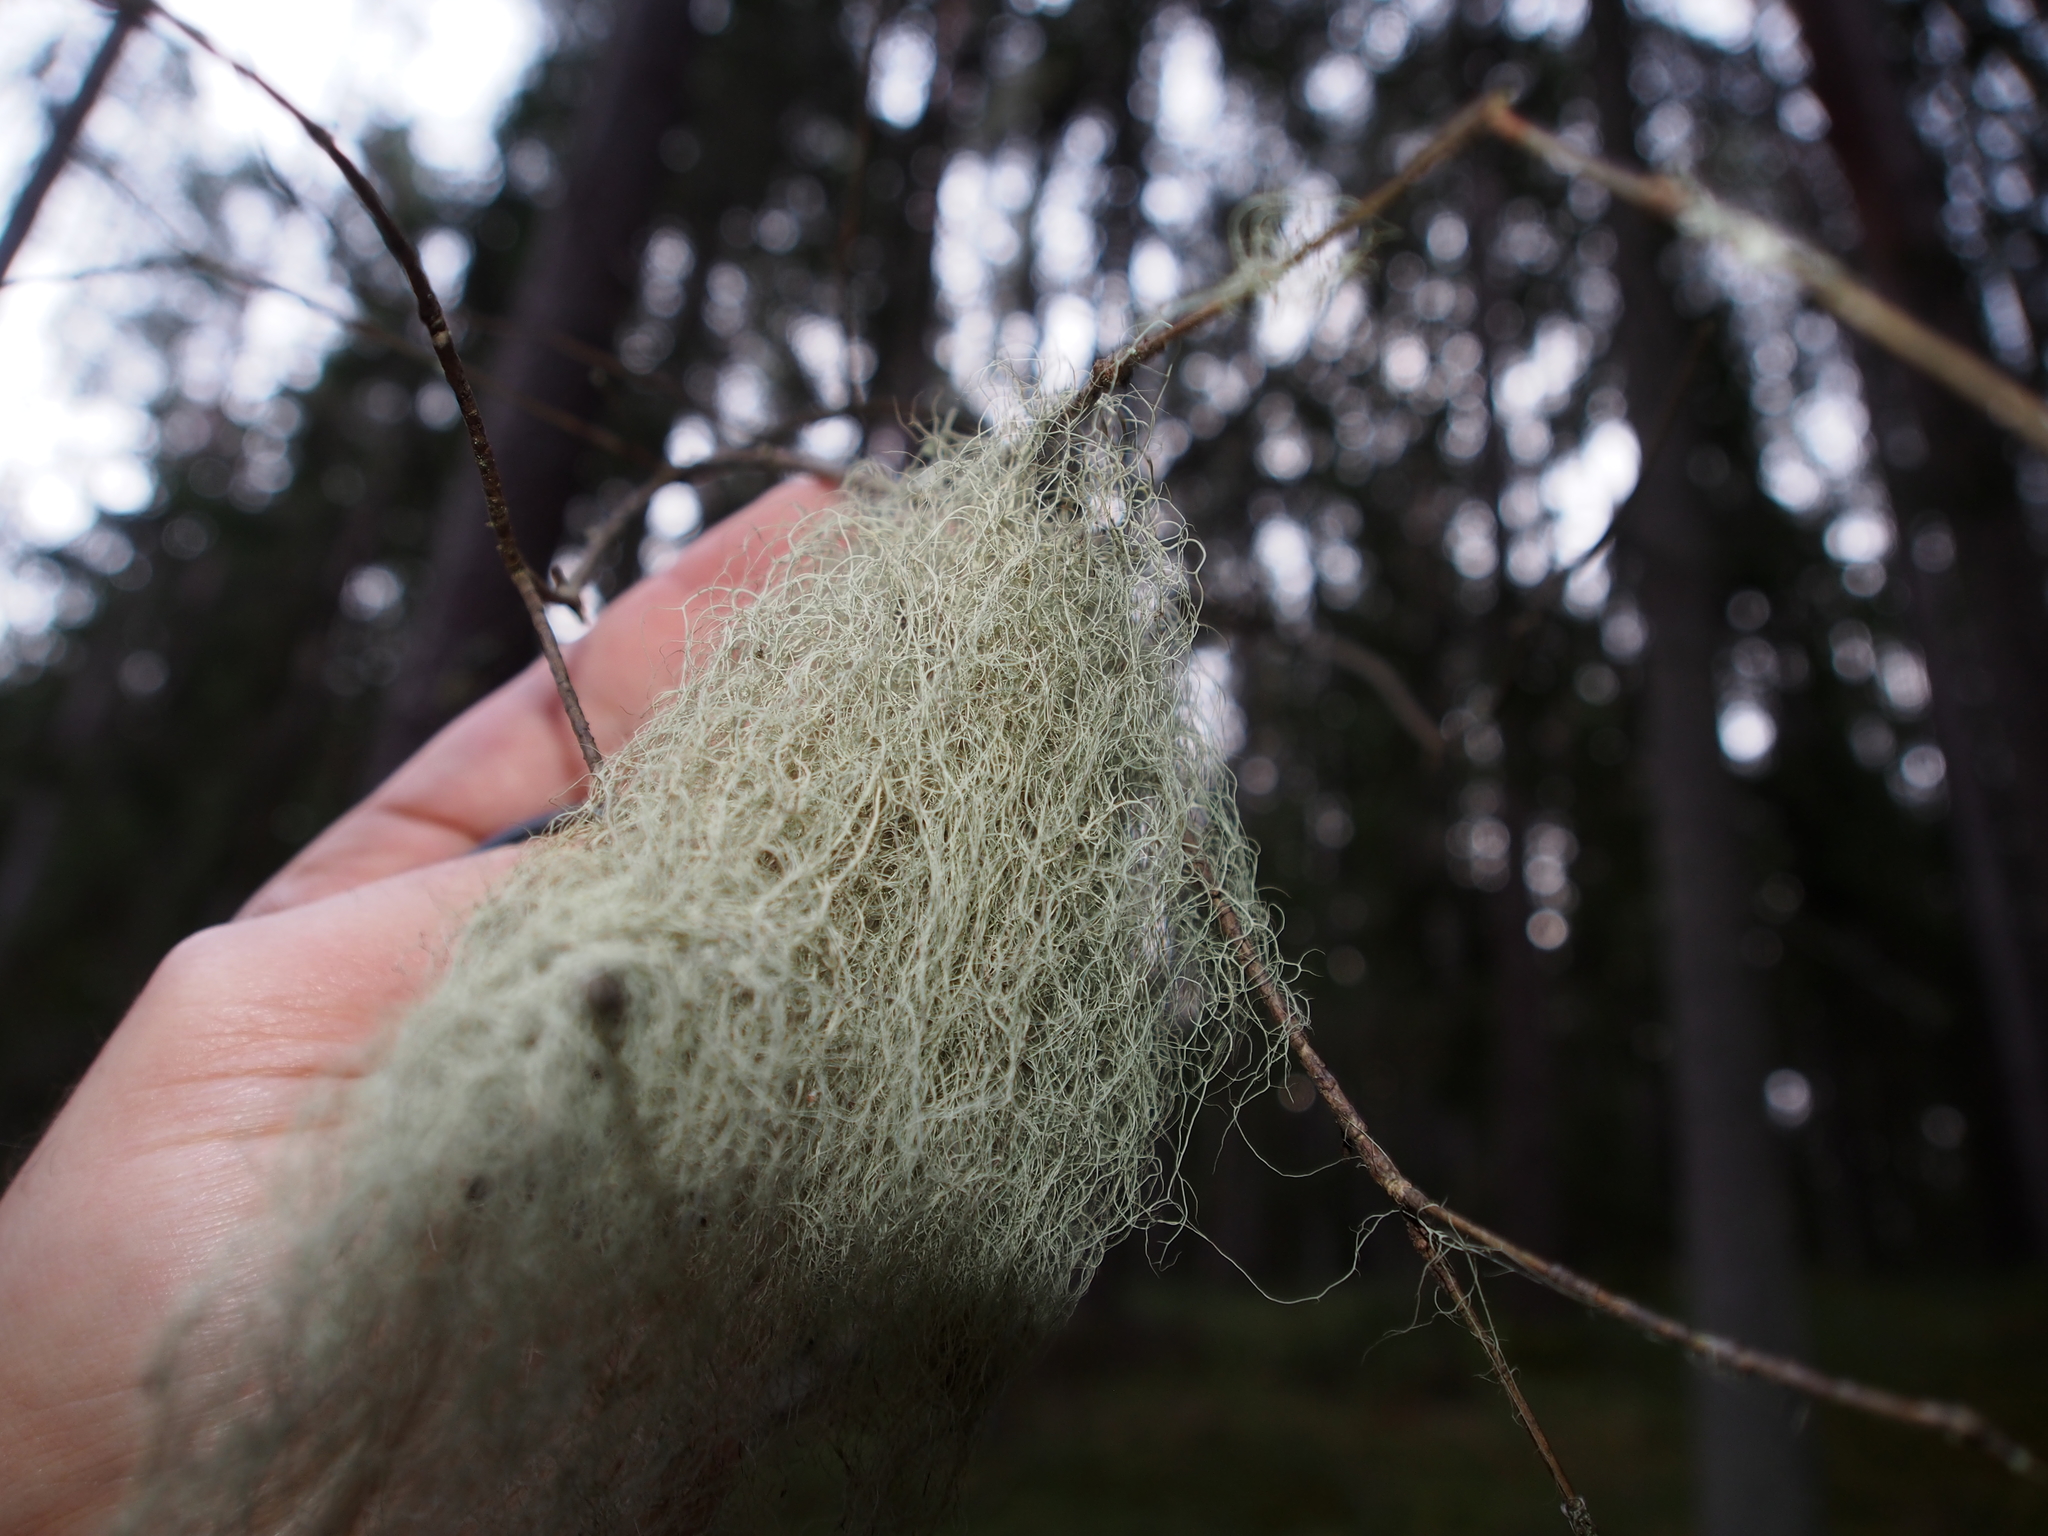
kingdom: Fungi
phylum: Ascomycota
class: Lecanoromycetes
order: Lecanorales
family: Parmeliaceae
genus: Bryoria
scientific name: Bryoria fuscescens
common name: Pale-footed horsehair lichen
